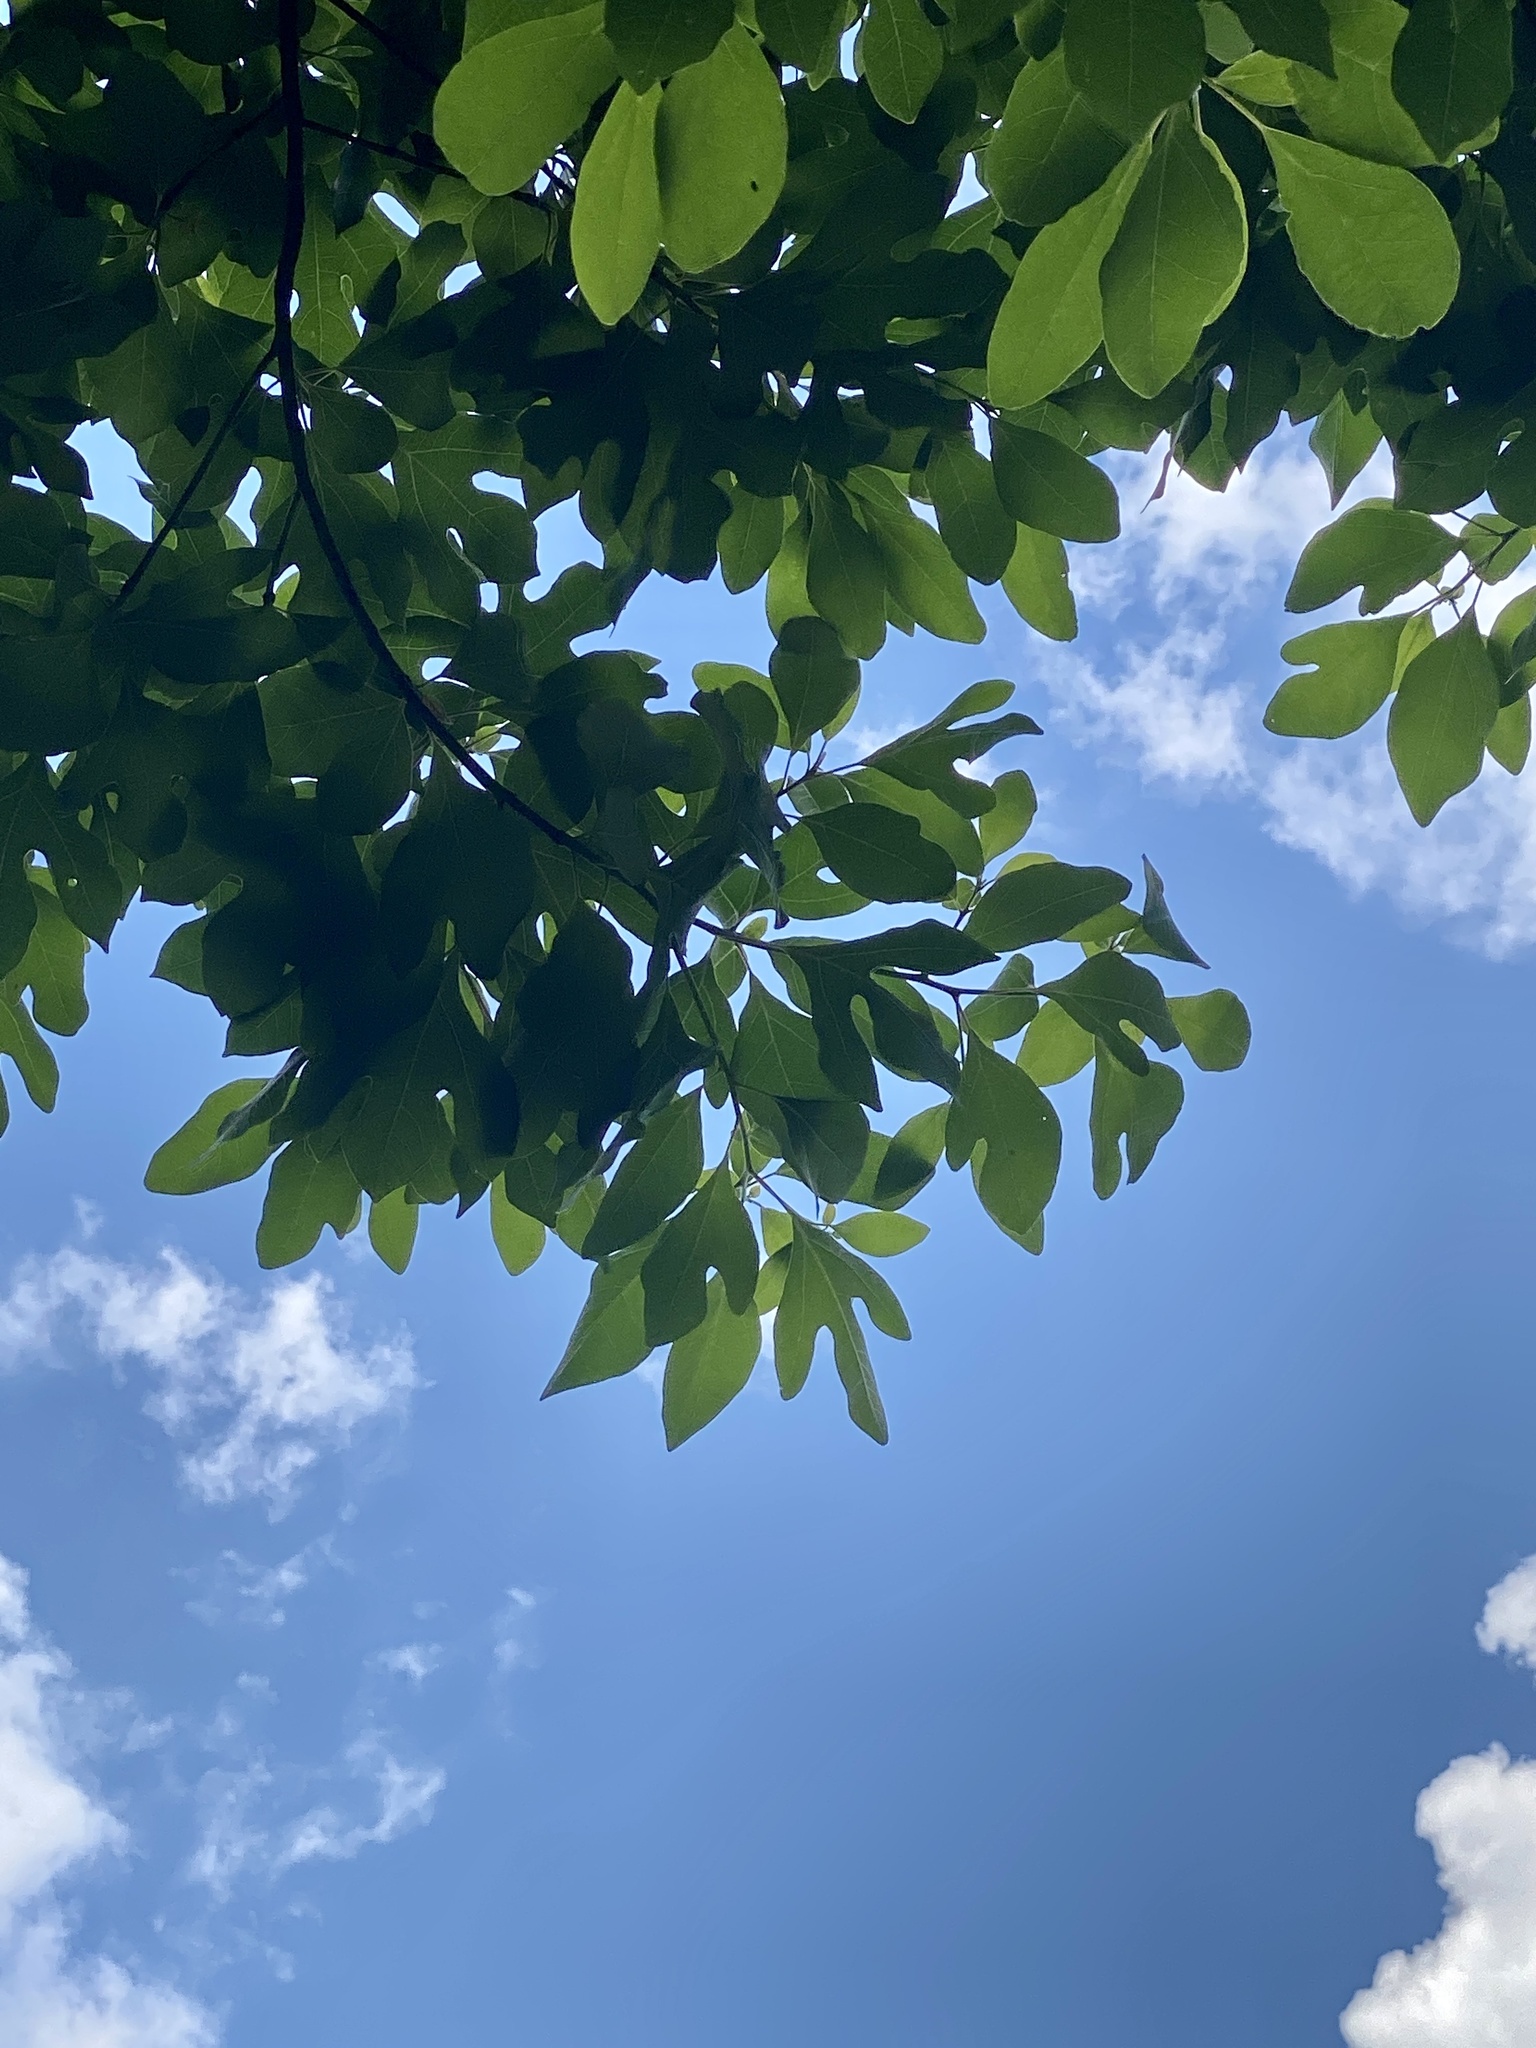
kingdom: Plantae
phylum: Tracheophyta
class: Magnoliopsida
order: Laurales
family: Lauraceae
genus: Sassafras
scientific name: Sassafras albidum
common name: Sassafras
